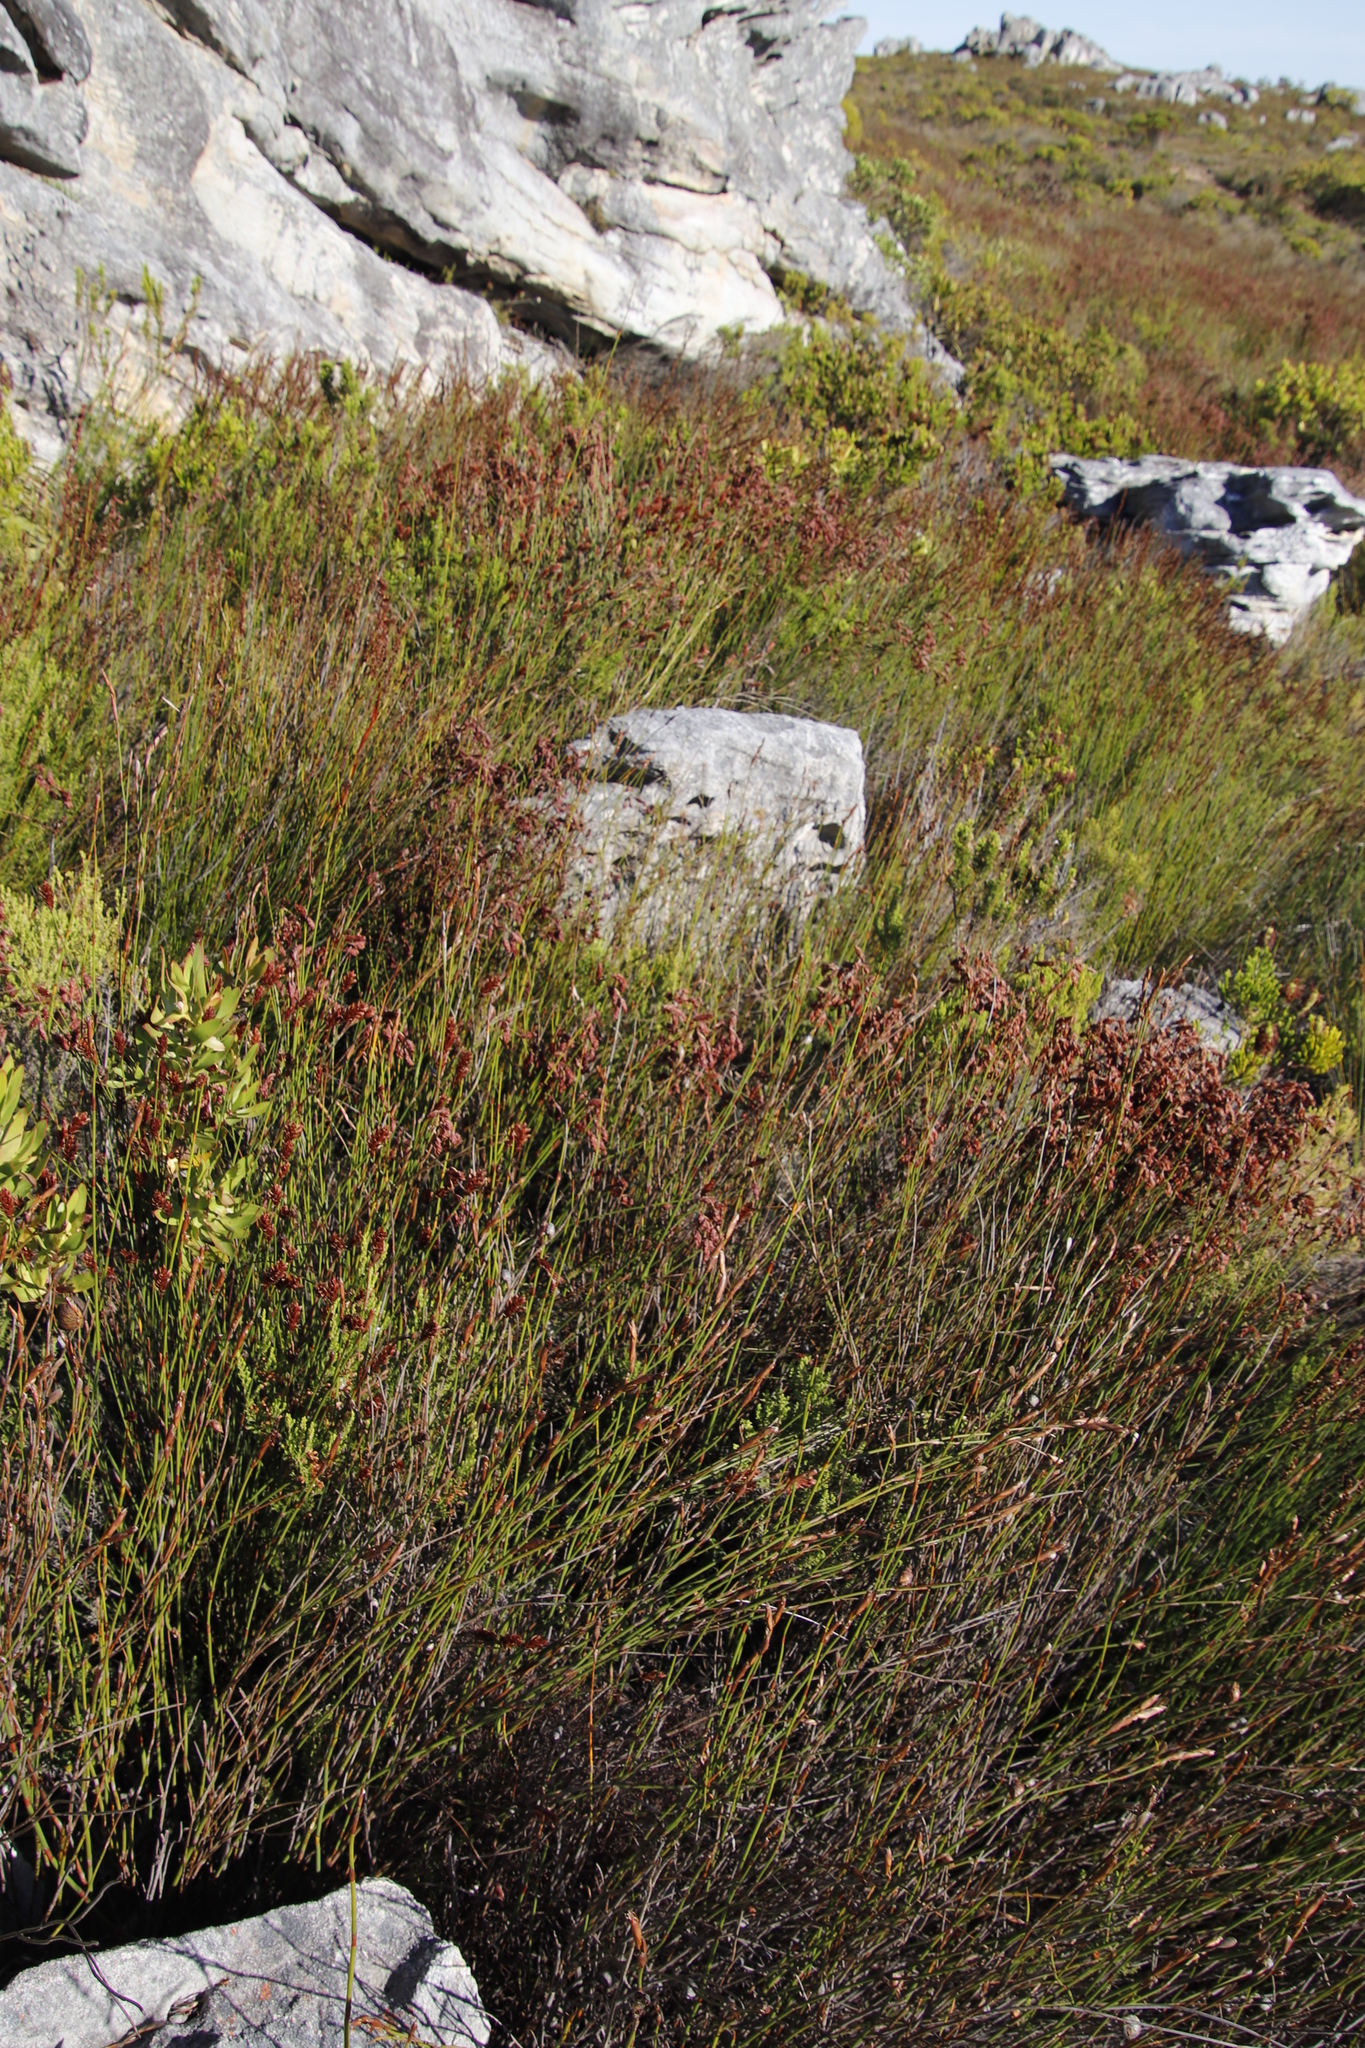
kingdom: Plantae
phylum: Tracheophyta
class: Liliopsida
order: Poales
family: Restionaceae
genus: Staberoha
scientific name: Staberoha vaginata
